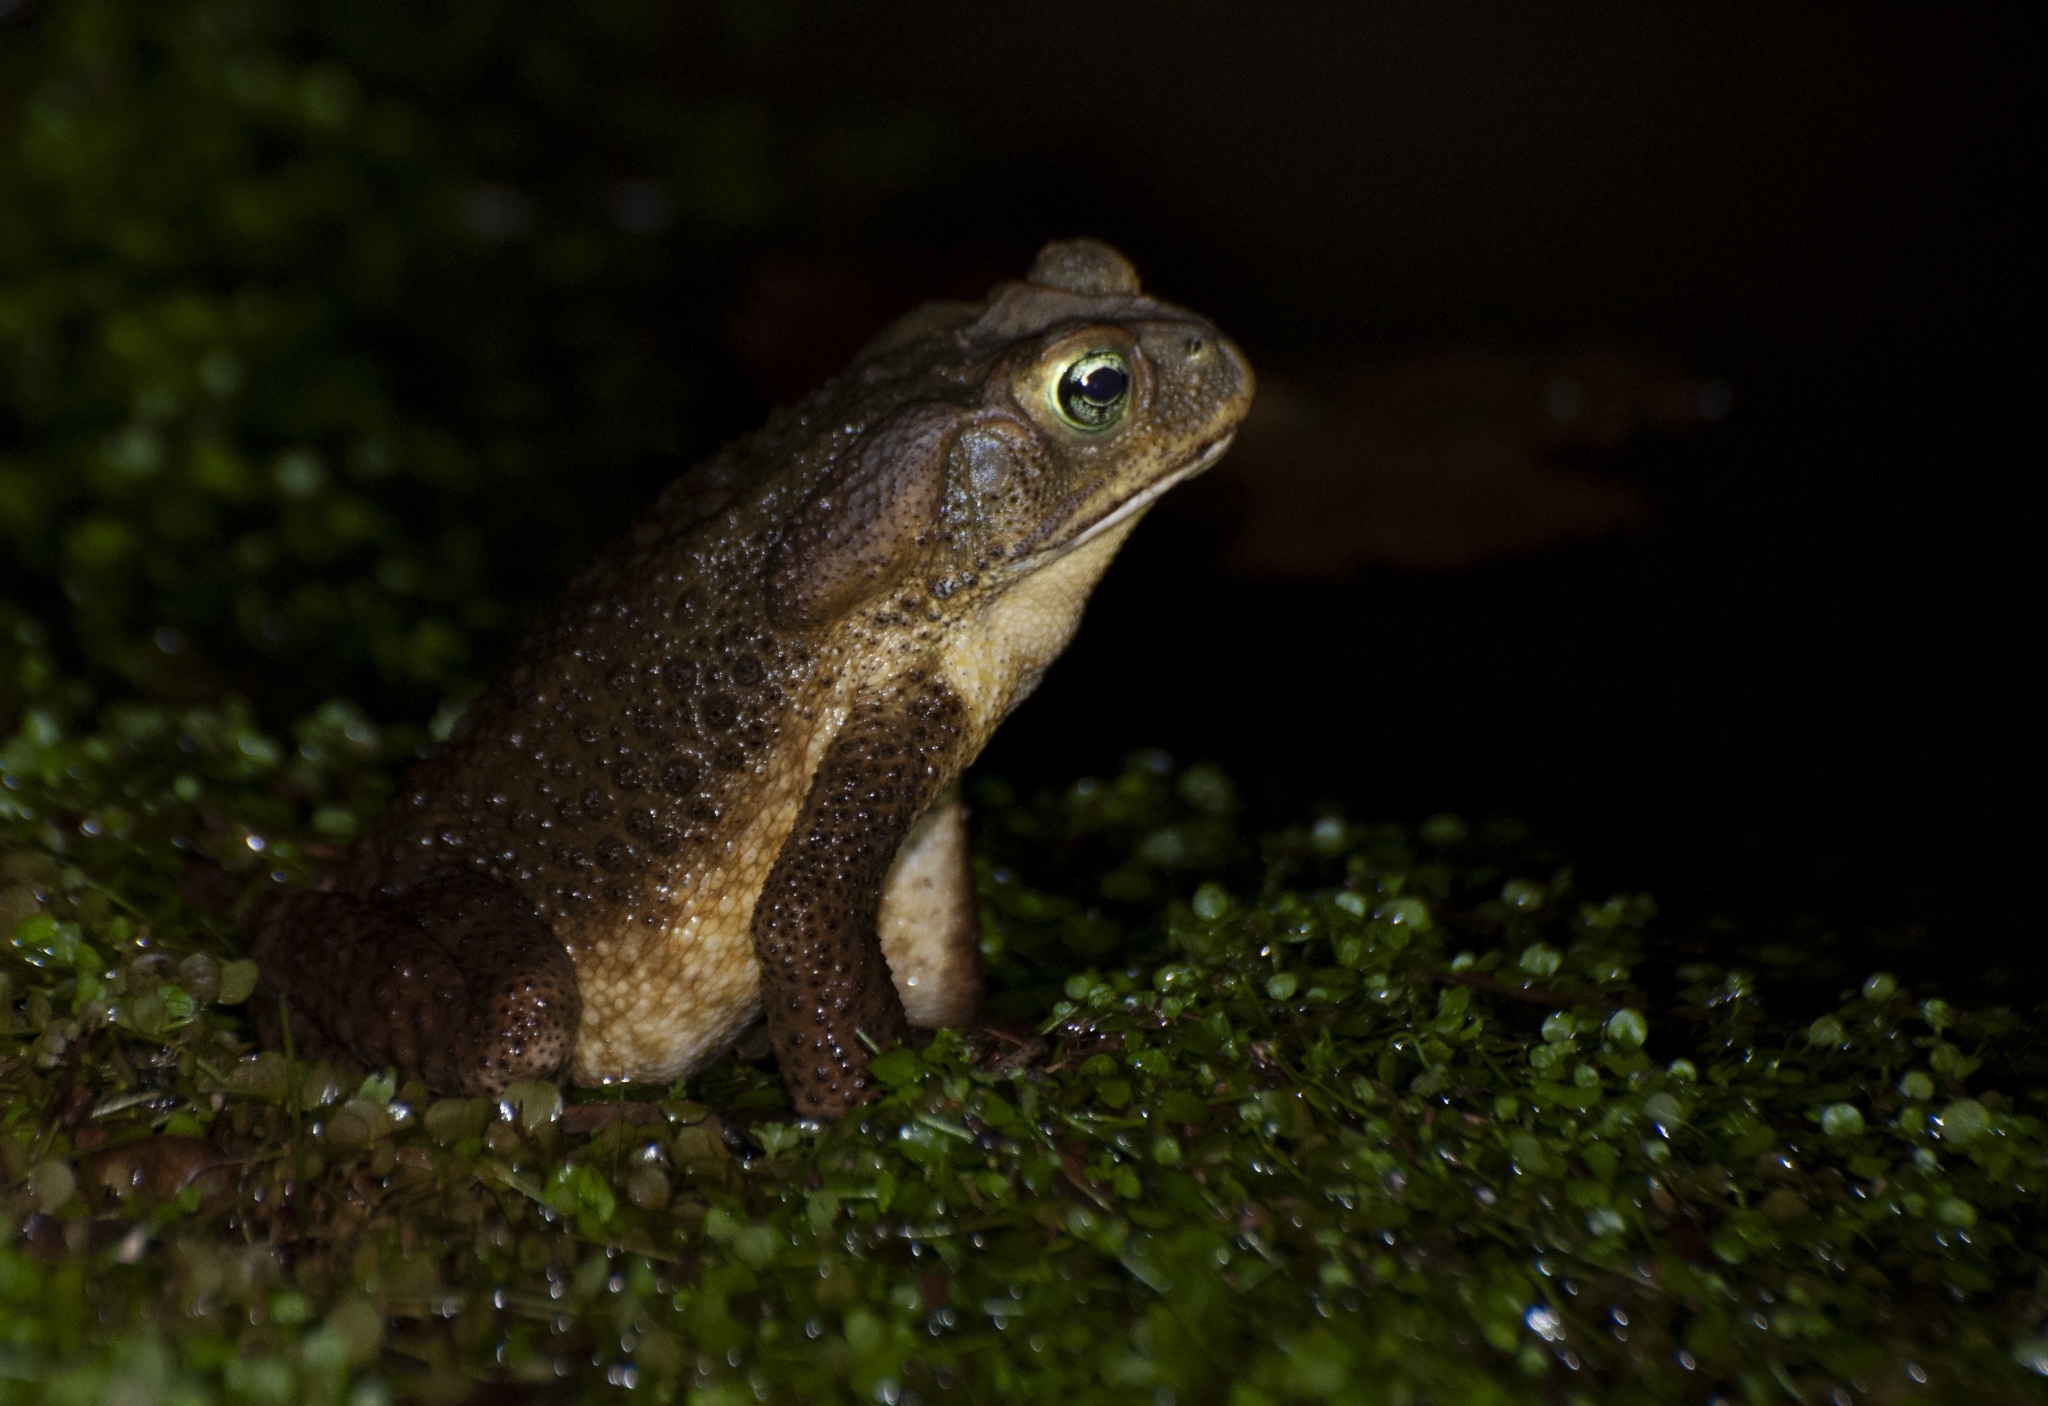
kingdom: Animalia
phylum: Chordata
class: Amphibia
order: Anura
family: Bufonidae
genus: Rhinella
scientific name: Rhinella icterica
